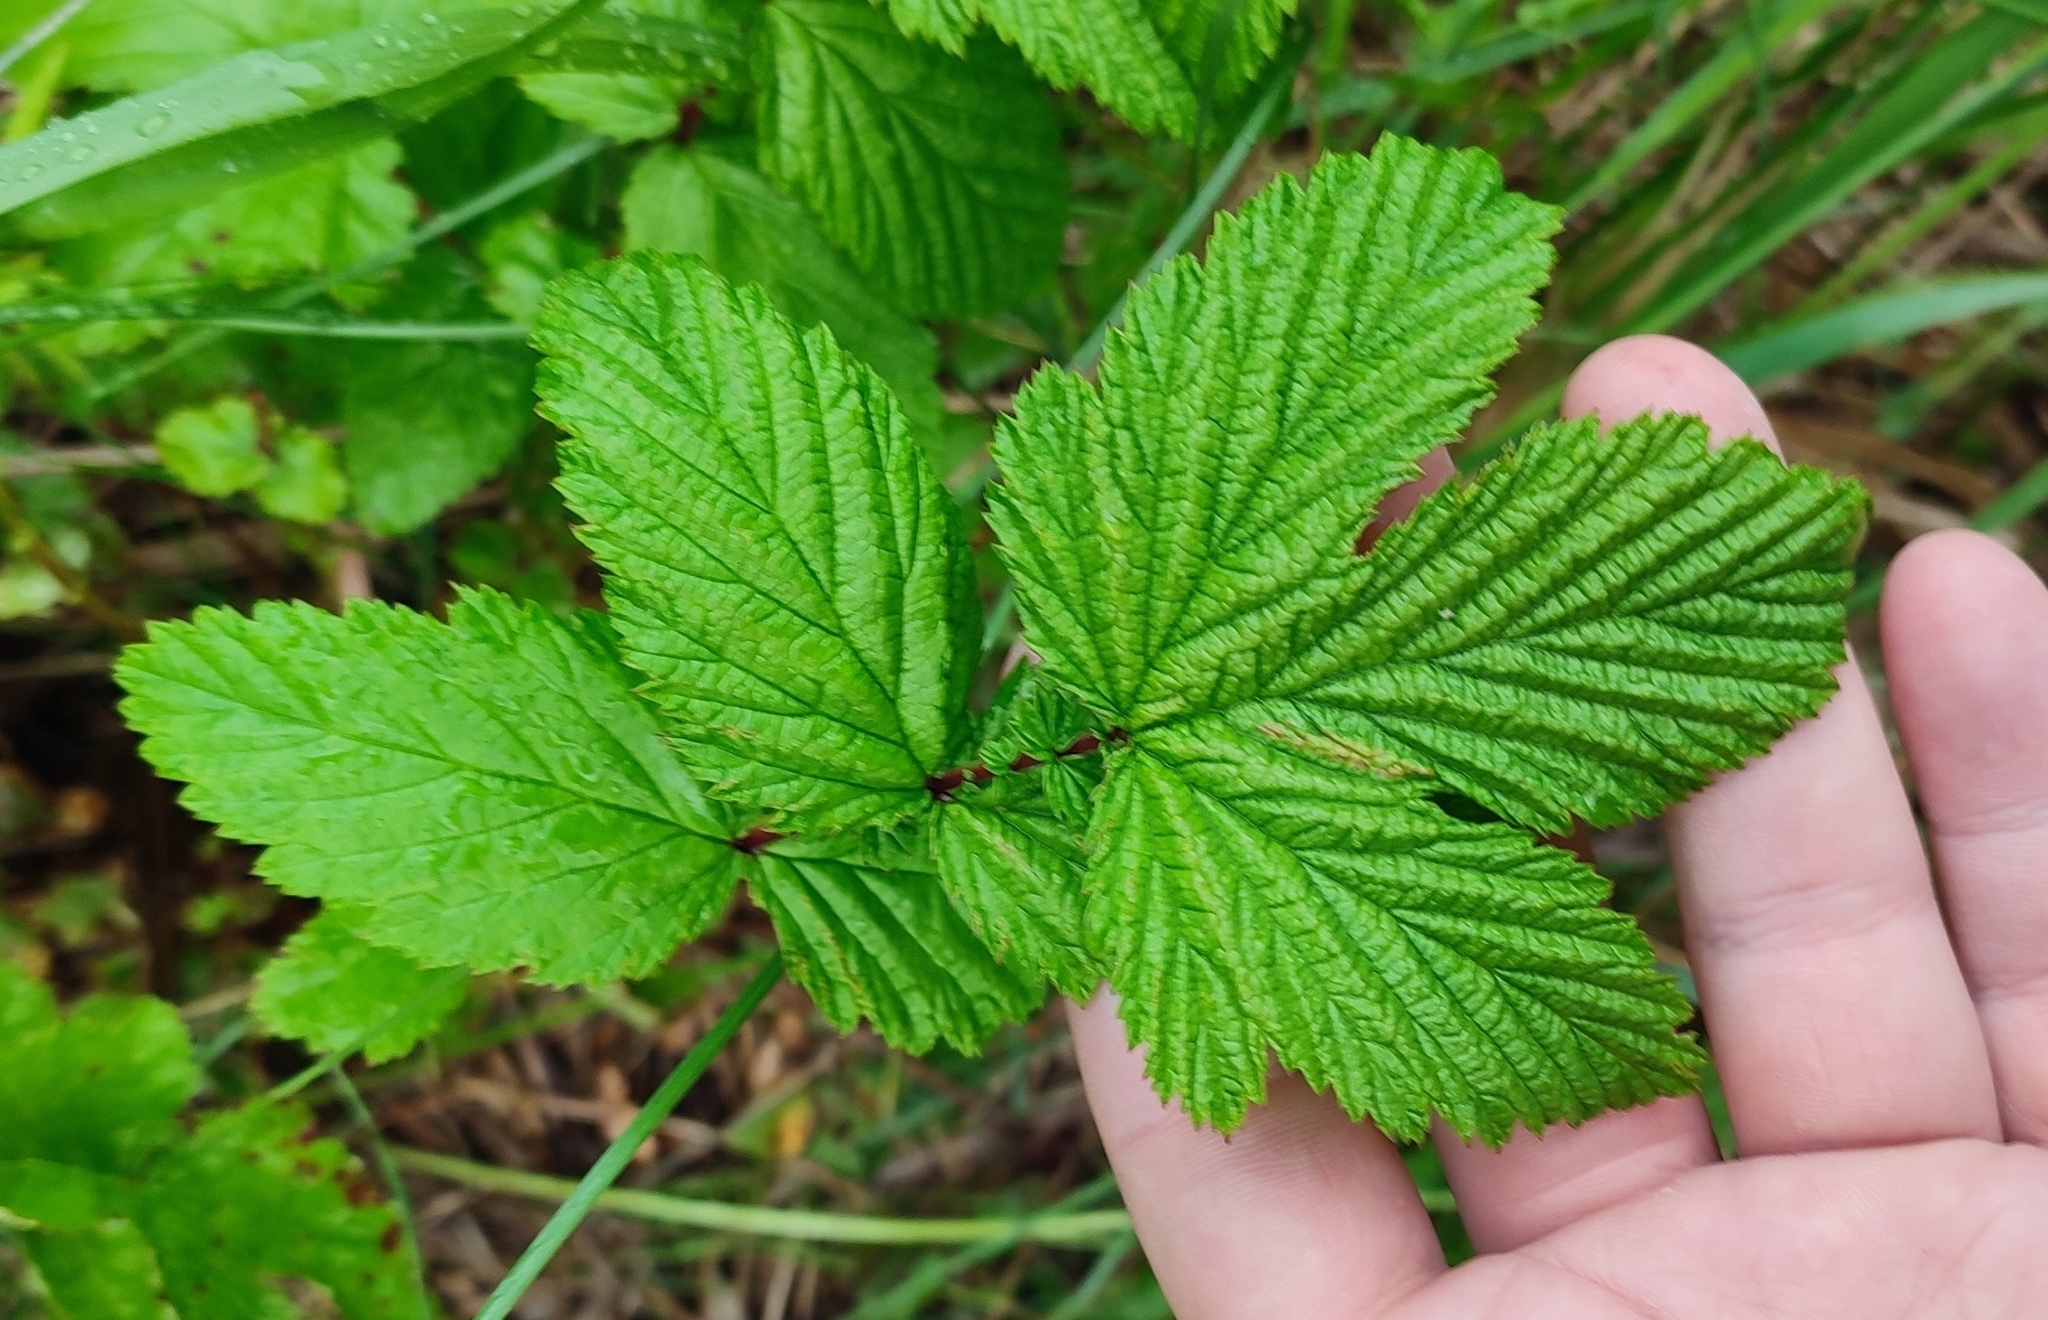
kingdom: Plantae
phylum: Tracheophyta
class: Magnoliopsida
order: Rosales
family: Rosaceae
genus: Filipendula
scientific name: Filipendula ulmaria
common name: Meadowsweet
